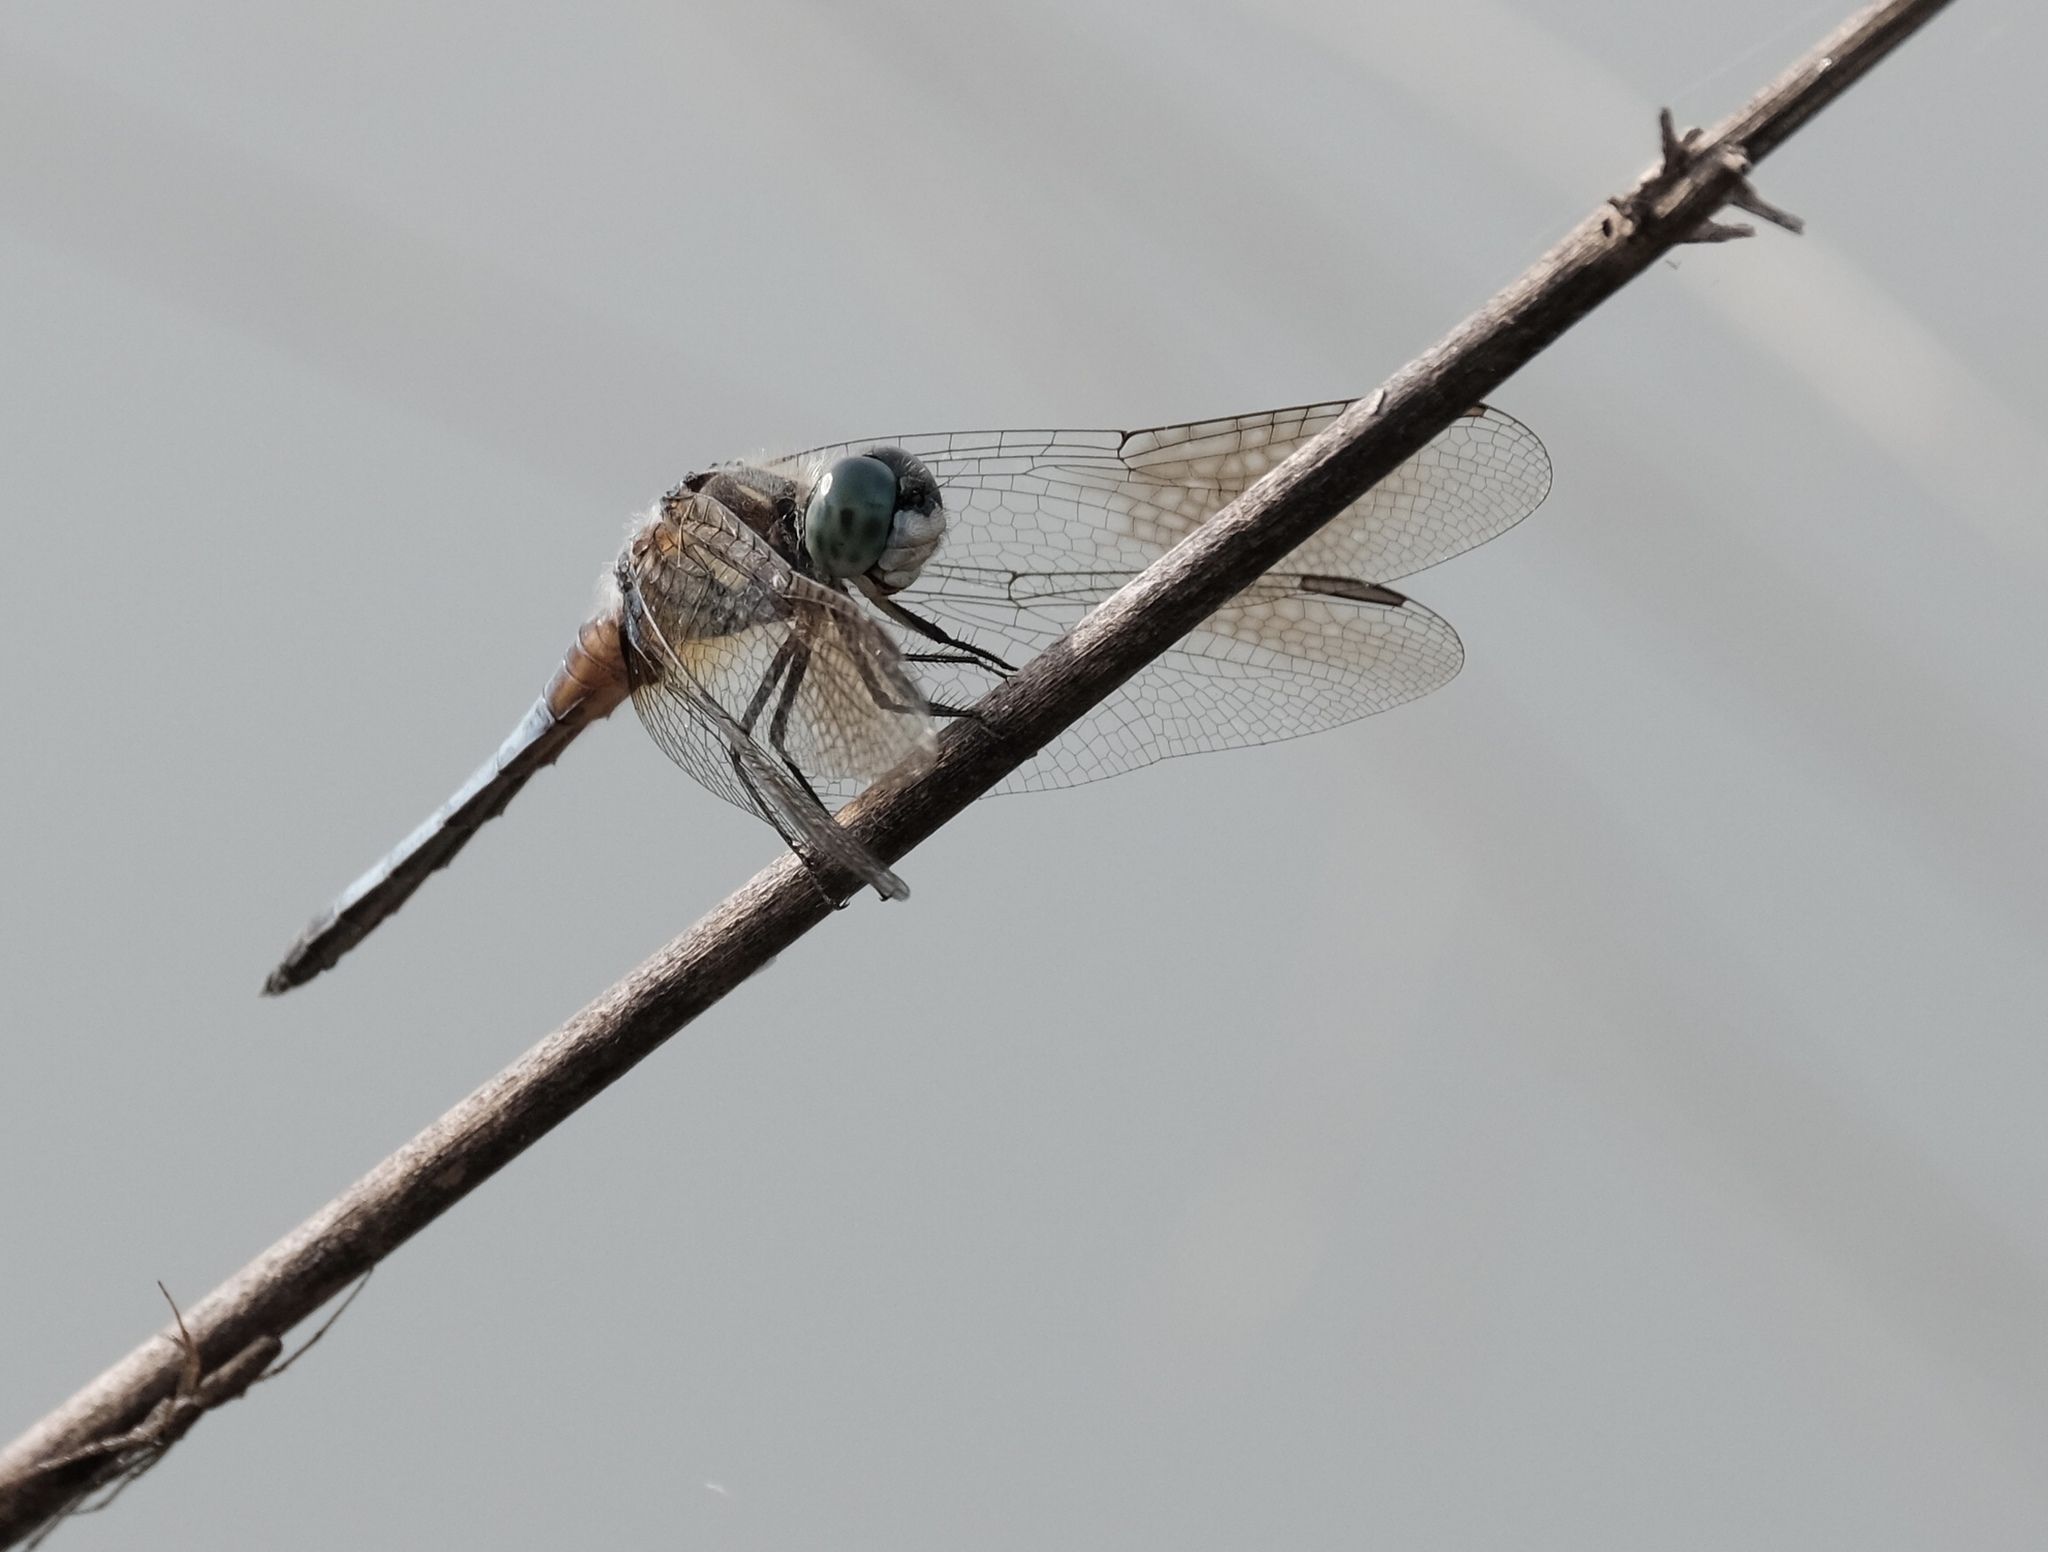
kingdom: Animalia
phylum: Arthropoda
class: Insecta
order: Odonata
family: Libellulidae
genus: Pachydiplax
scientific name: Pachydiplax longipennis
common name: Blue dasher
